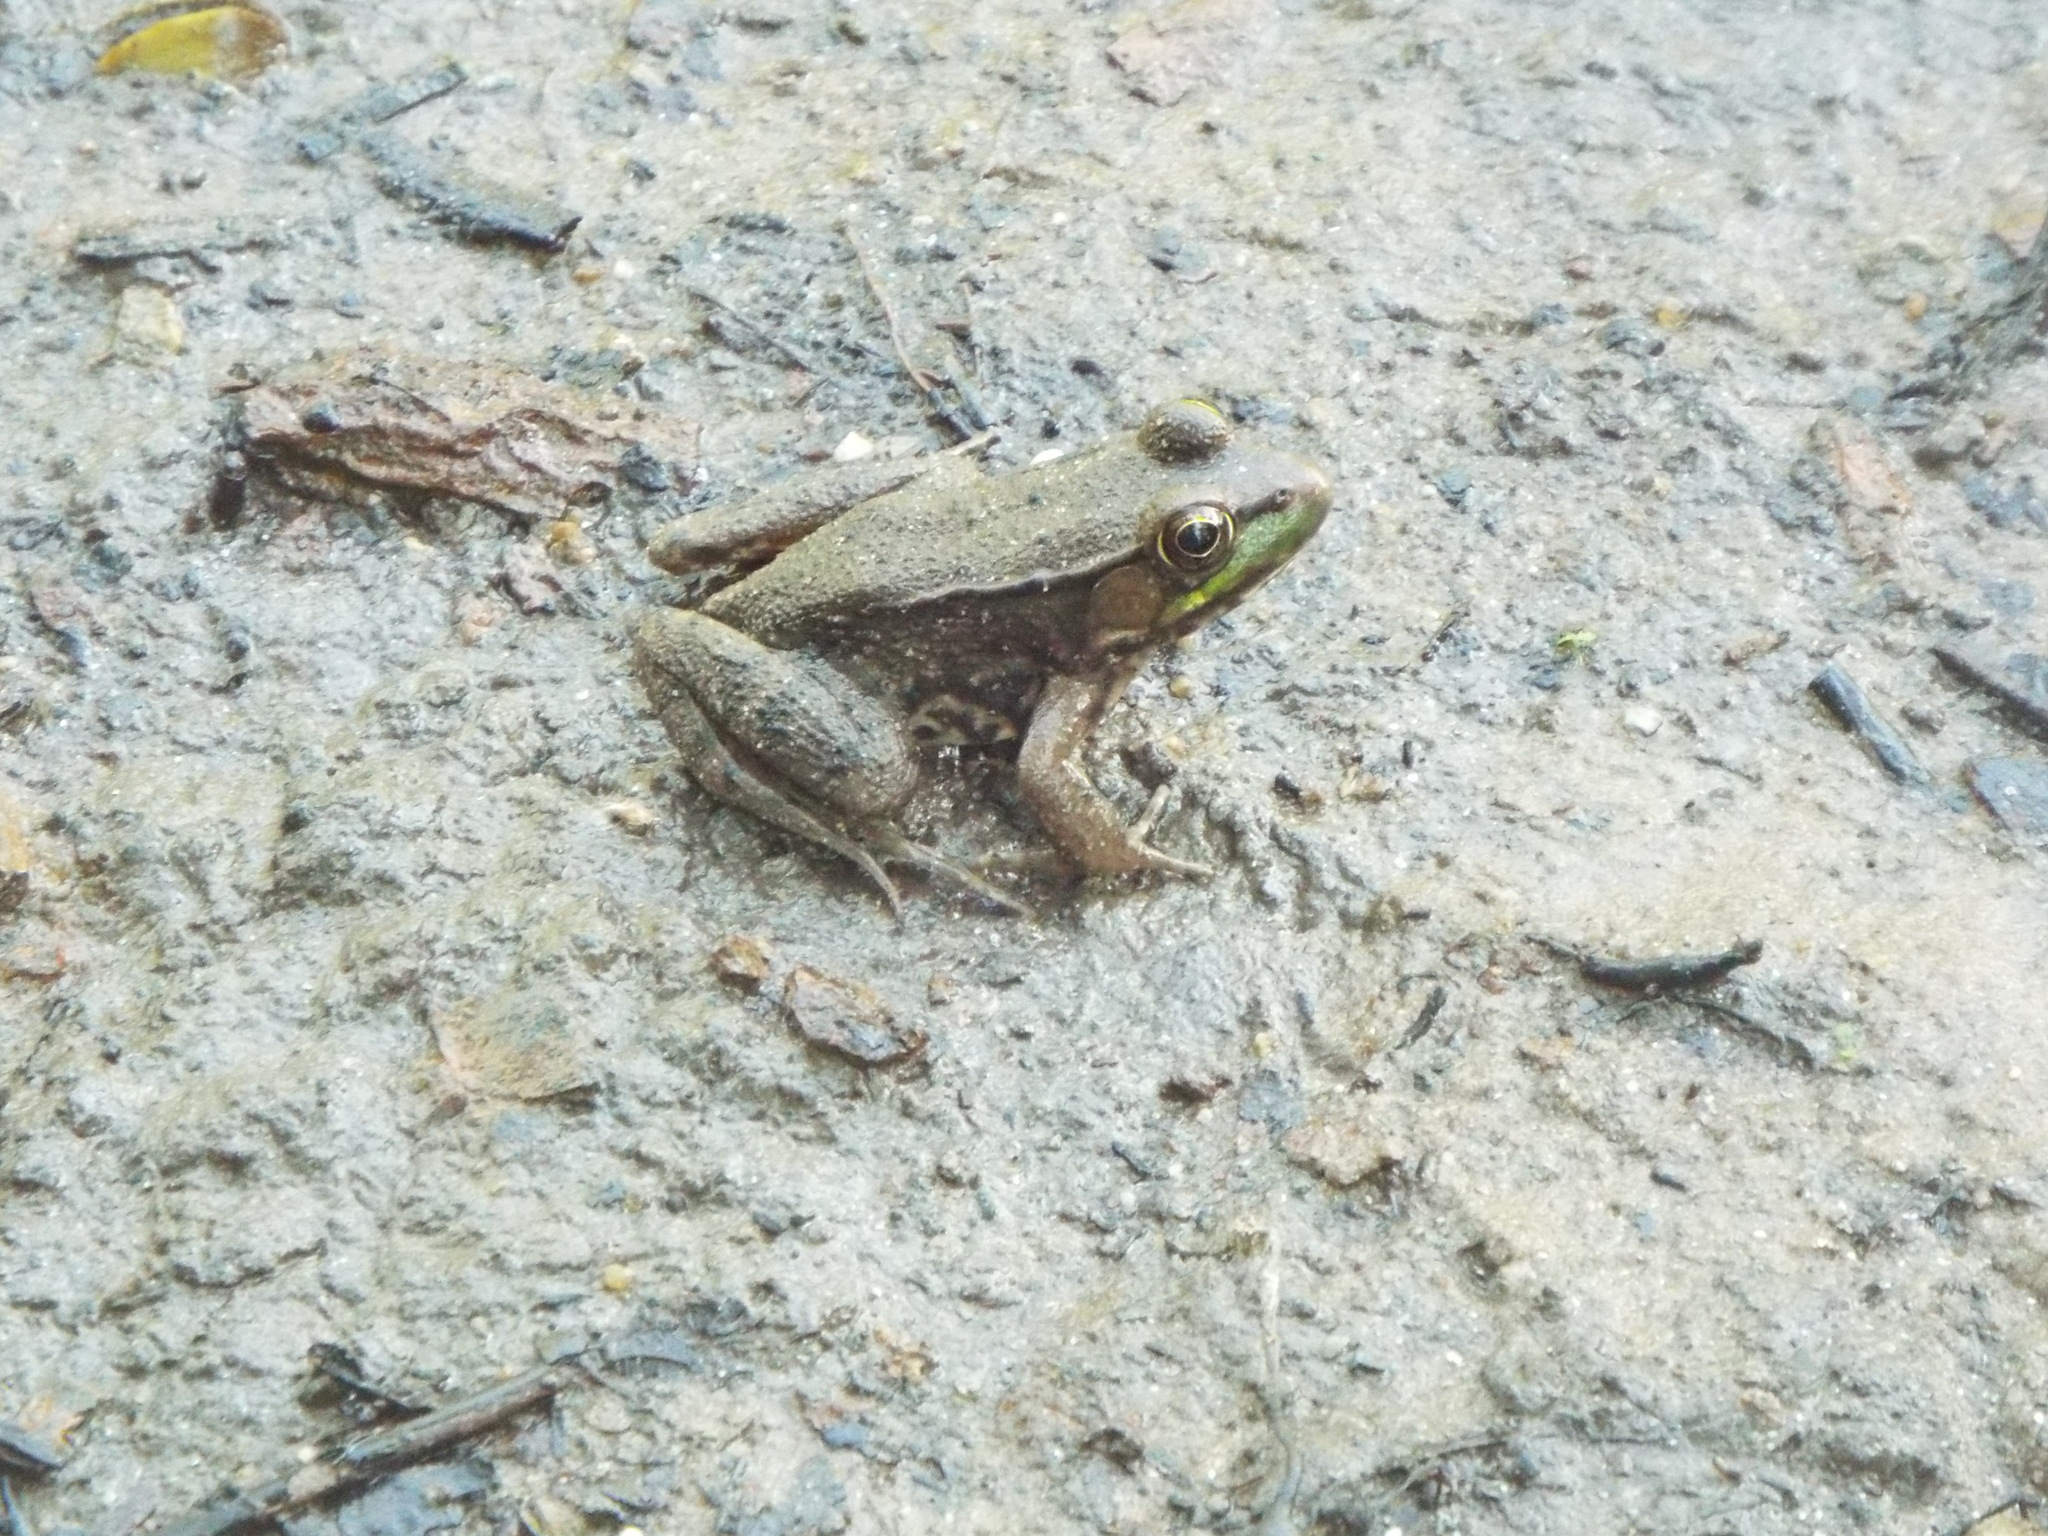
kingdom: Animalia
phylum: Chordata
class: Amphibia
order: Anura
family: Ranidae
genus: Lithobates
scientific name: Lithobates clamitans
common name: Green frog
